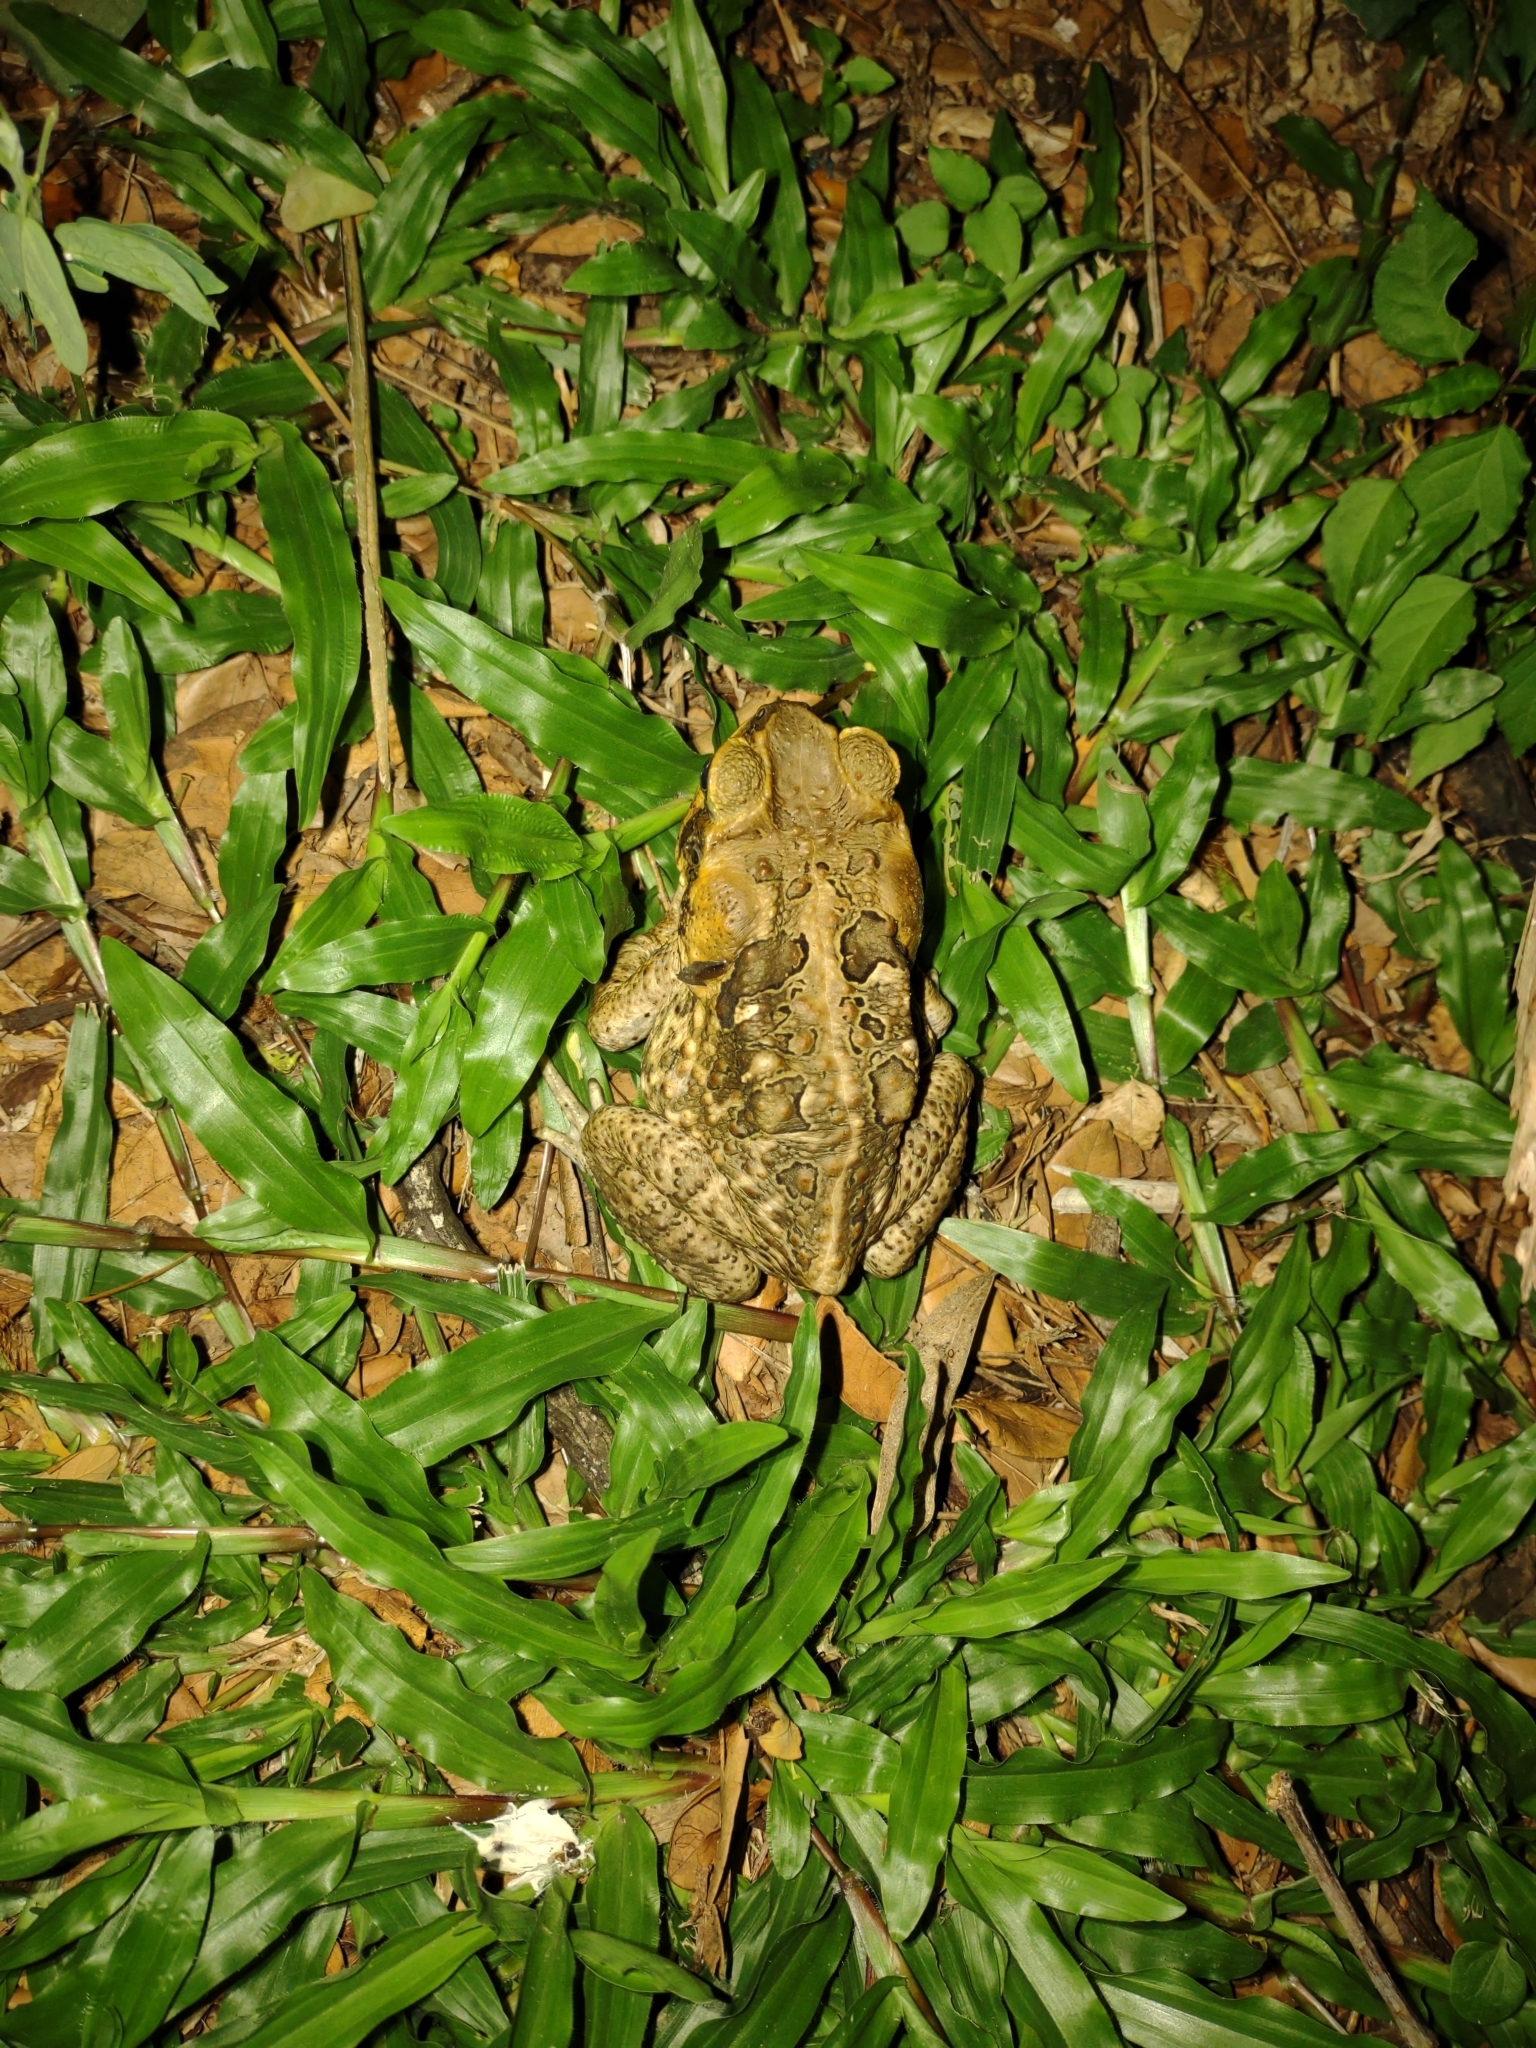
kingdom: Animalia
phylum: Chordata
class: Amphibia
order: Anura
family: Bufonidae
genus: Rhinella
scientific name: Rhinella marina
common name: Cane toad
